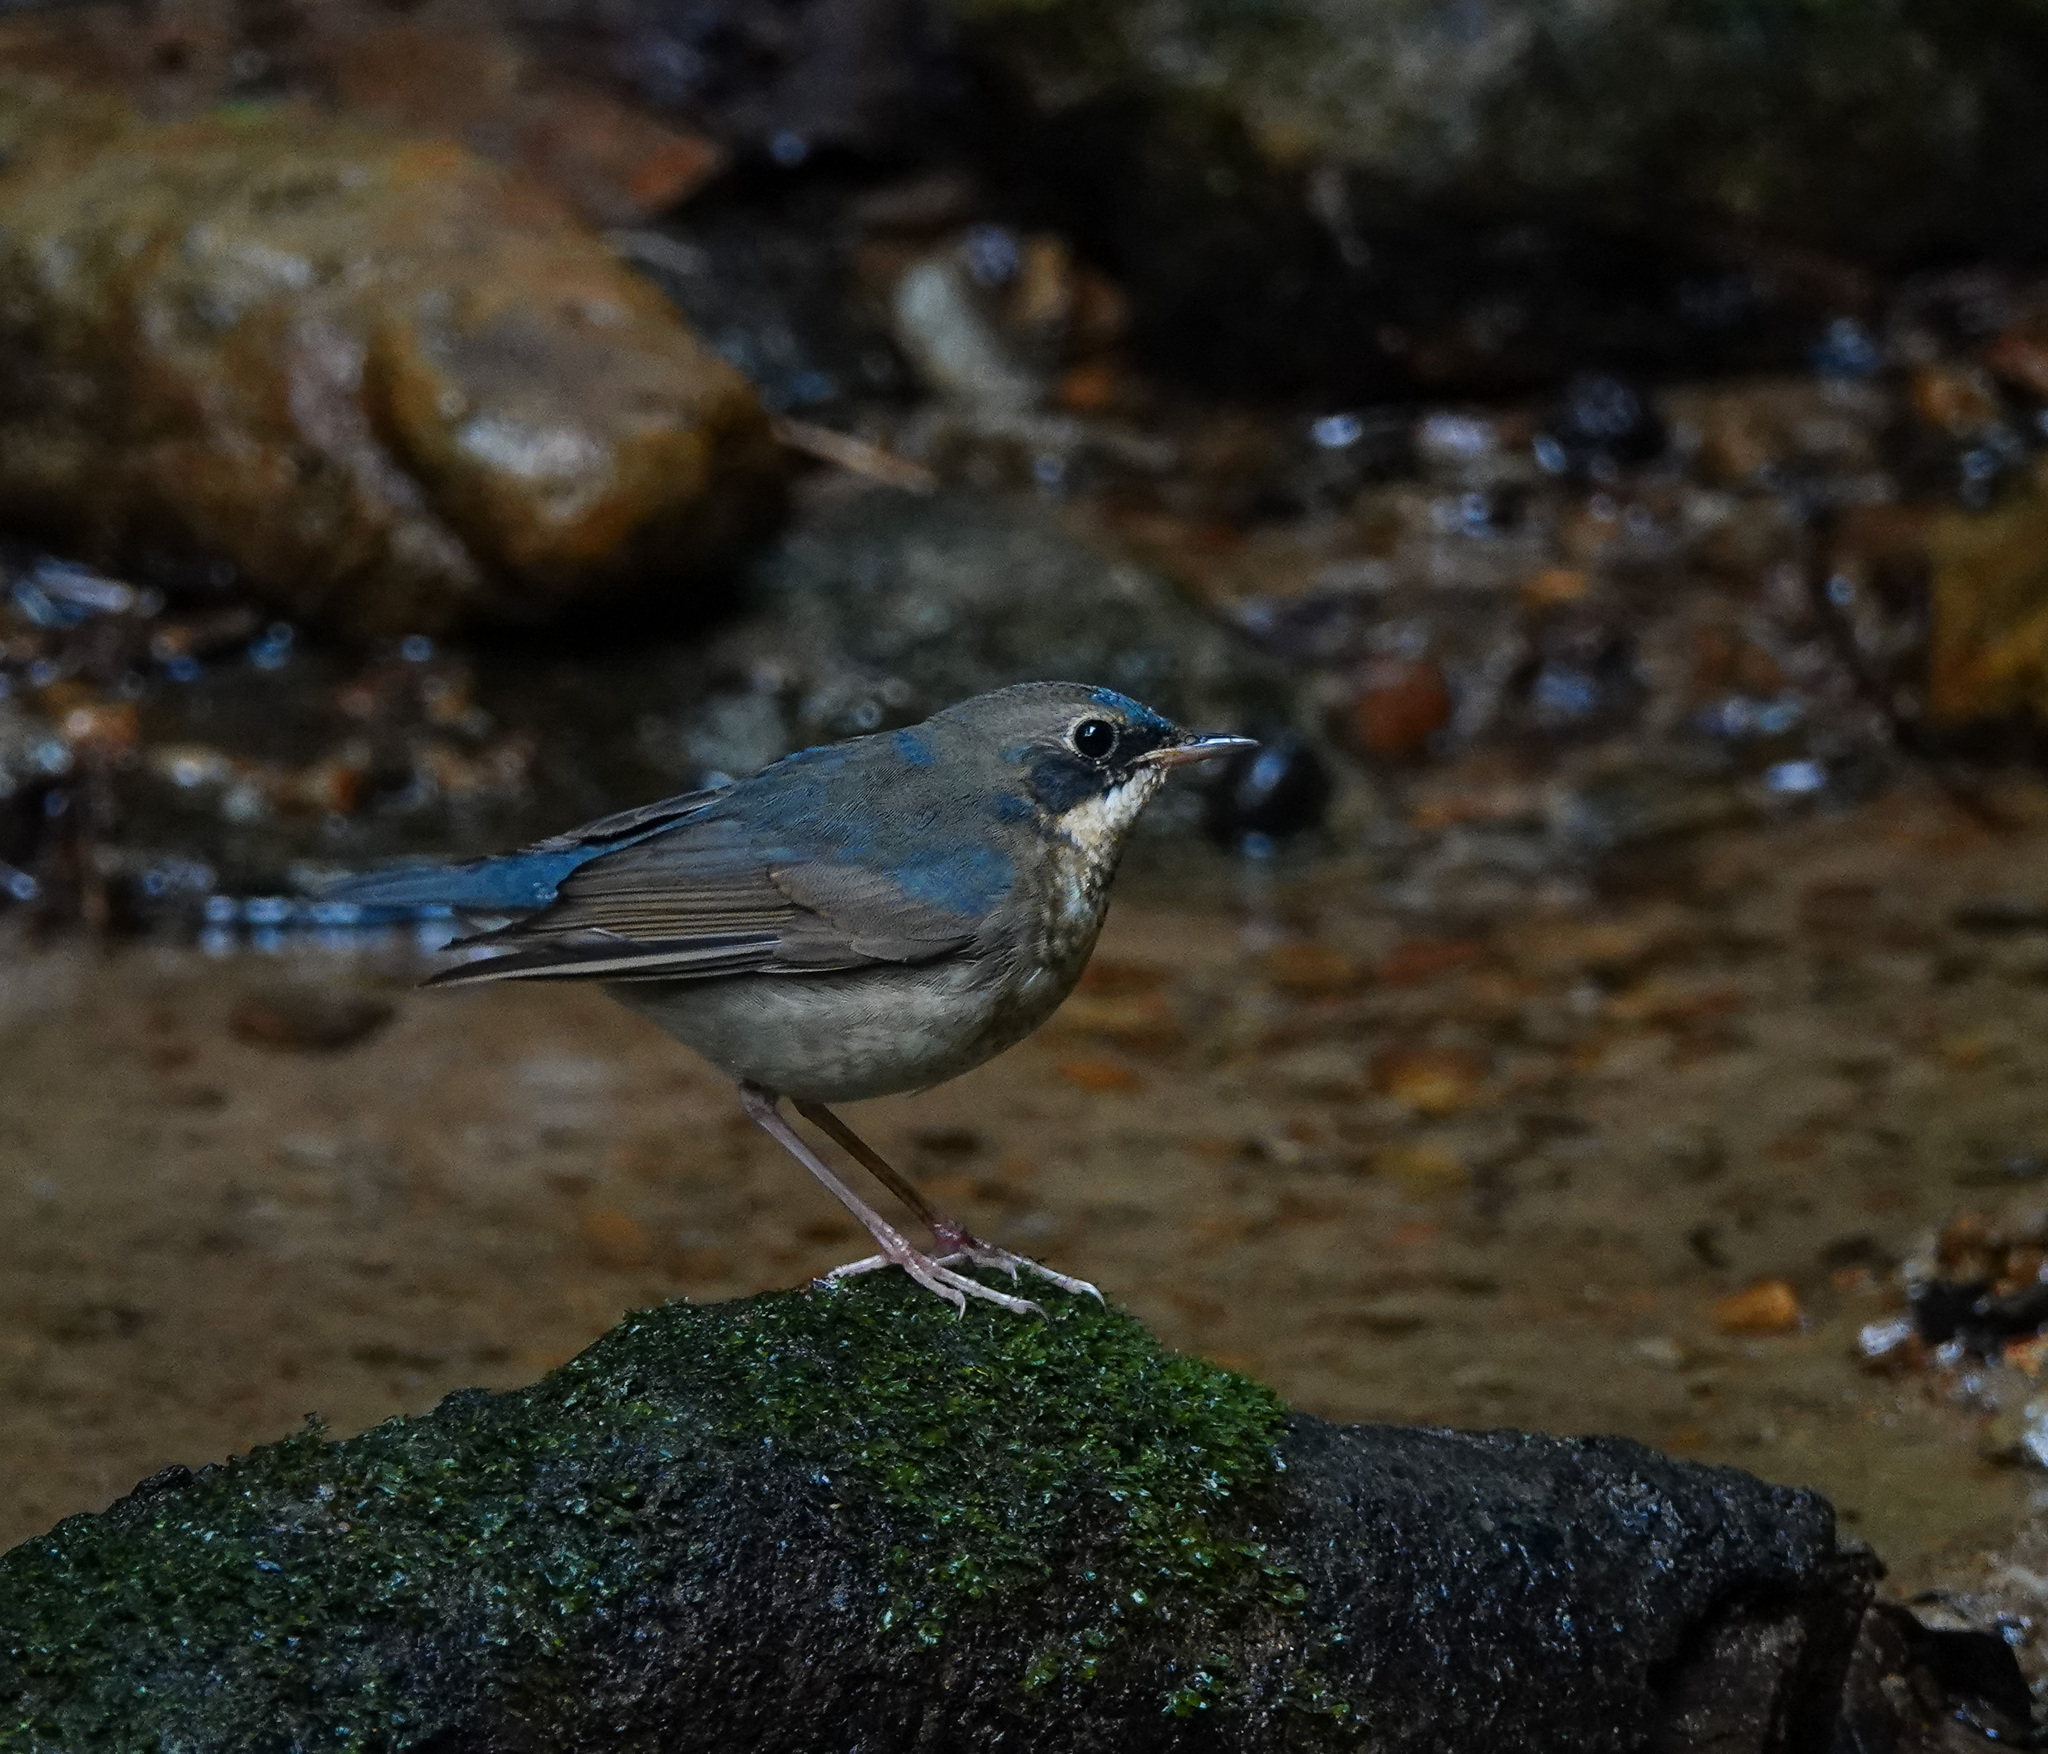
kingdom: Animalia
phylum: Chordata
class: Aves
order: Passeriformes
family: Muscicapidae
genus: Luscinia
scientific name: Luscinia cyane
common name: Siberian blue robin
